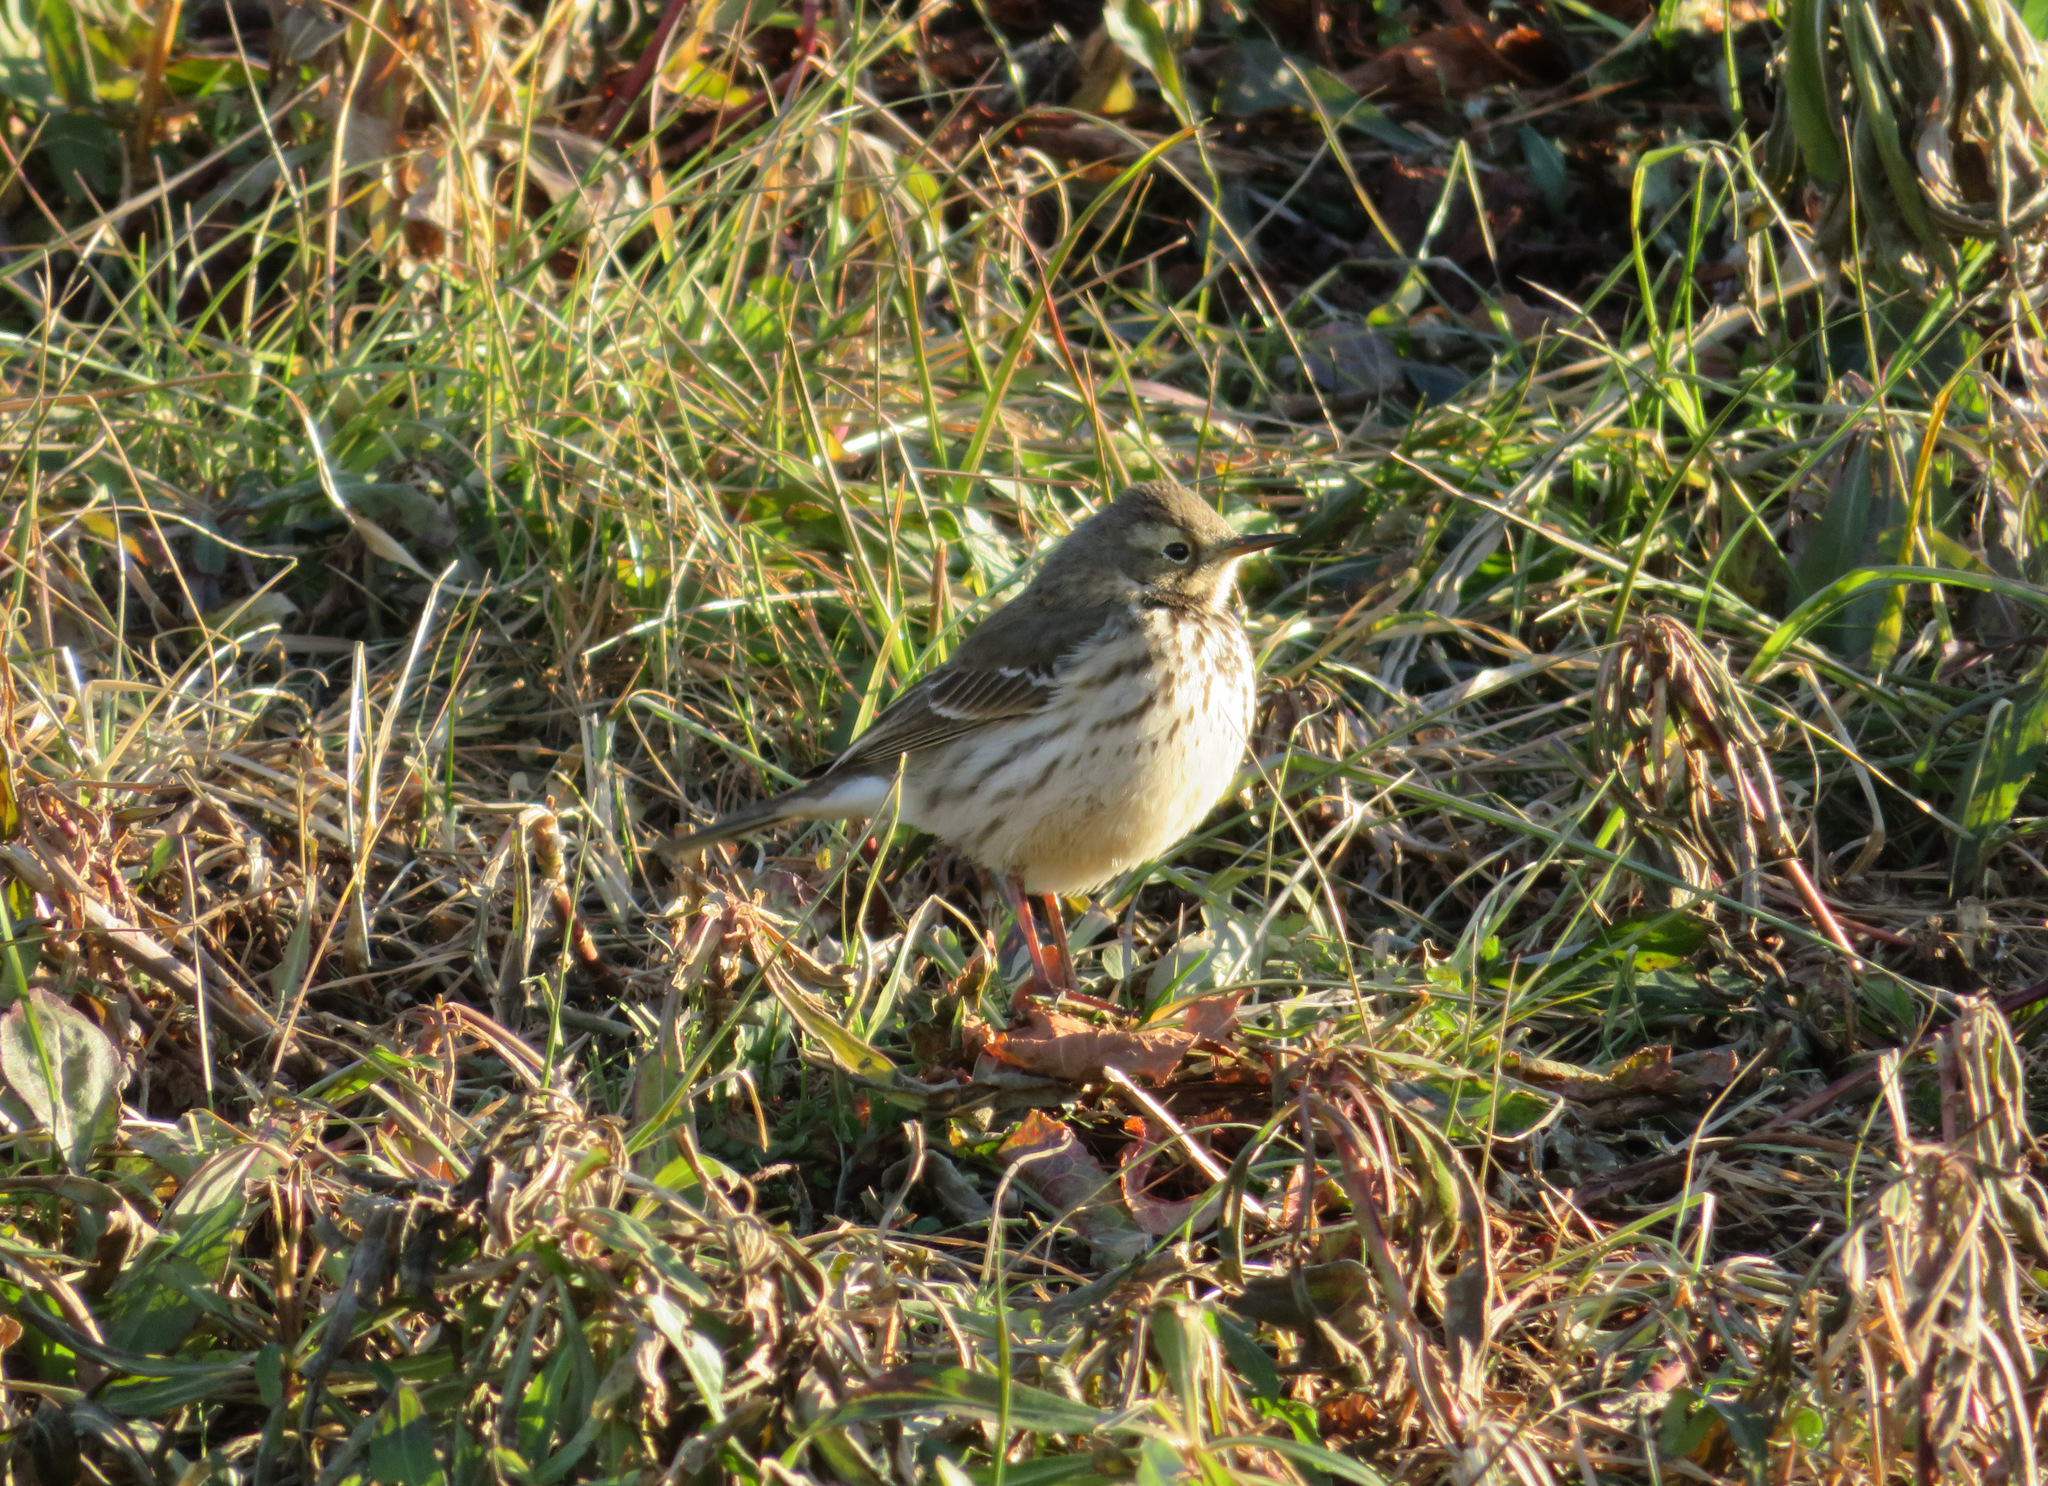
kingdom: Animalia
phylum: Chordata
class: Aves
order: Passeriformes
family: Motacillidae
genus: Anthus
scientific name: Anthus rubescens
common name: Buff-bellied pipit
